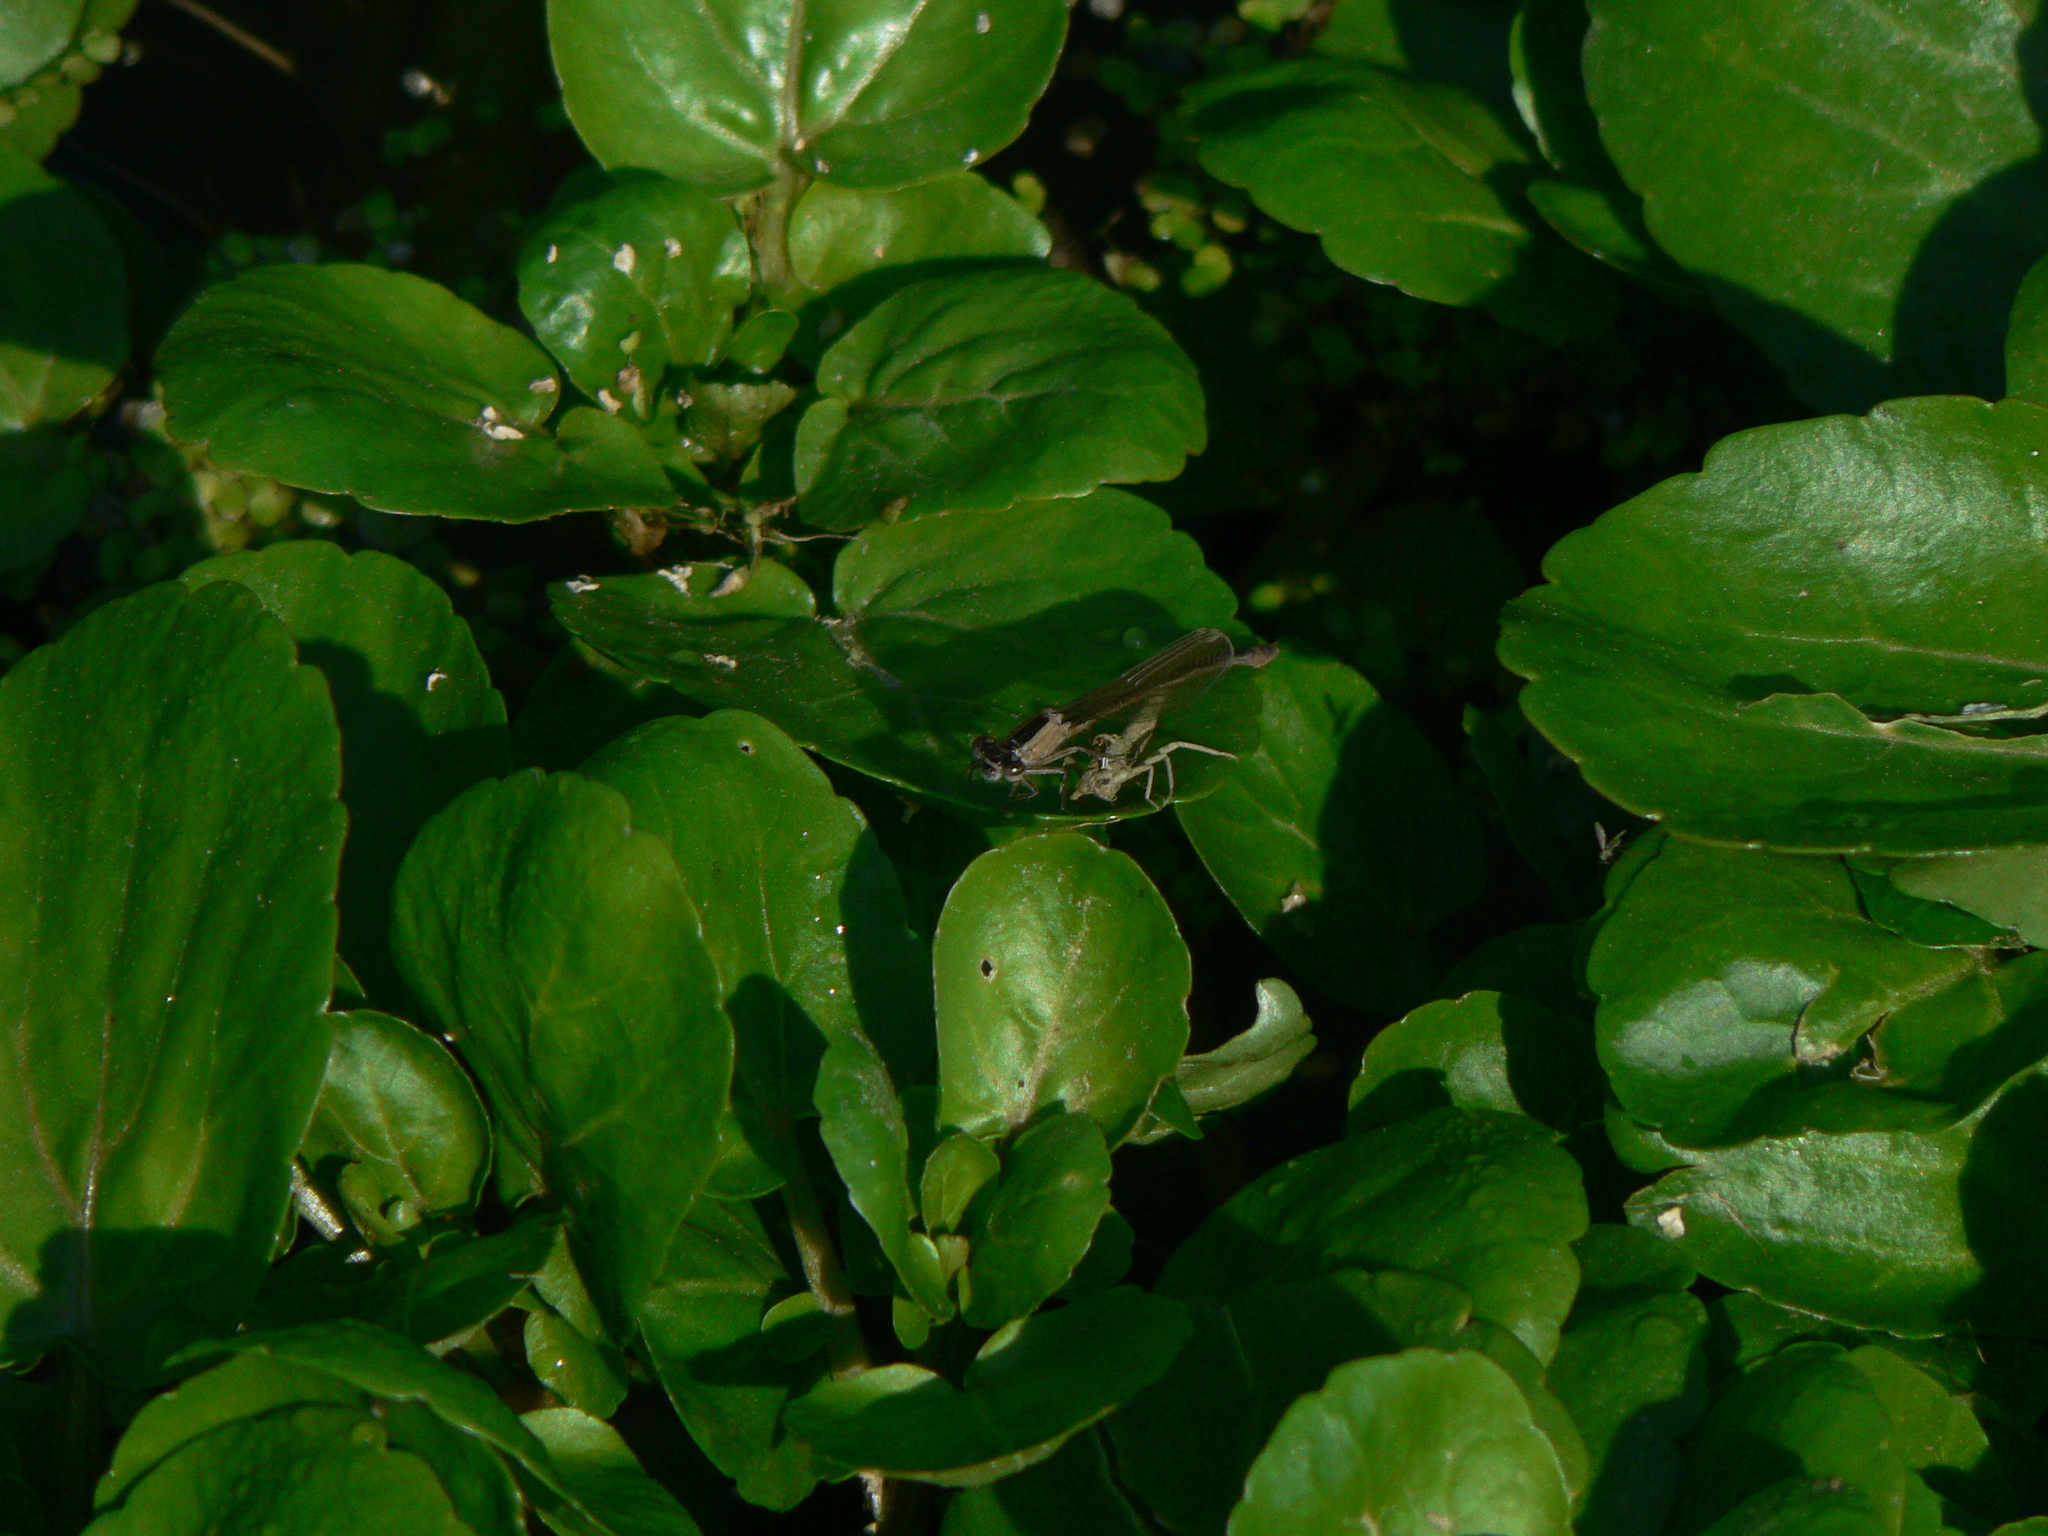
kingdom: Animalia
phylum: Arthropoda
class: Insecta
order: Odonata
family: Coenagrionidae
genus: Ischnura
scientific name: Ischnura elegans
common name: Blue-tailed damselfly
